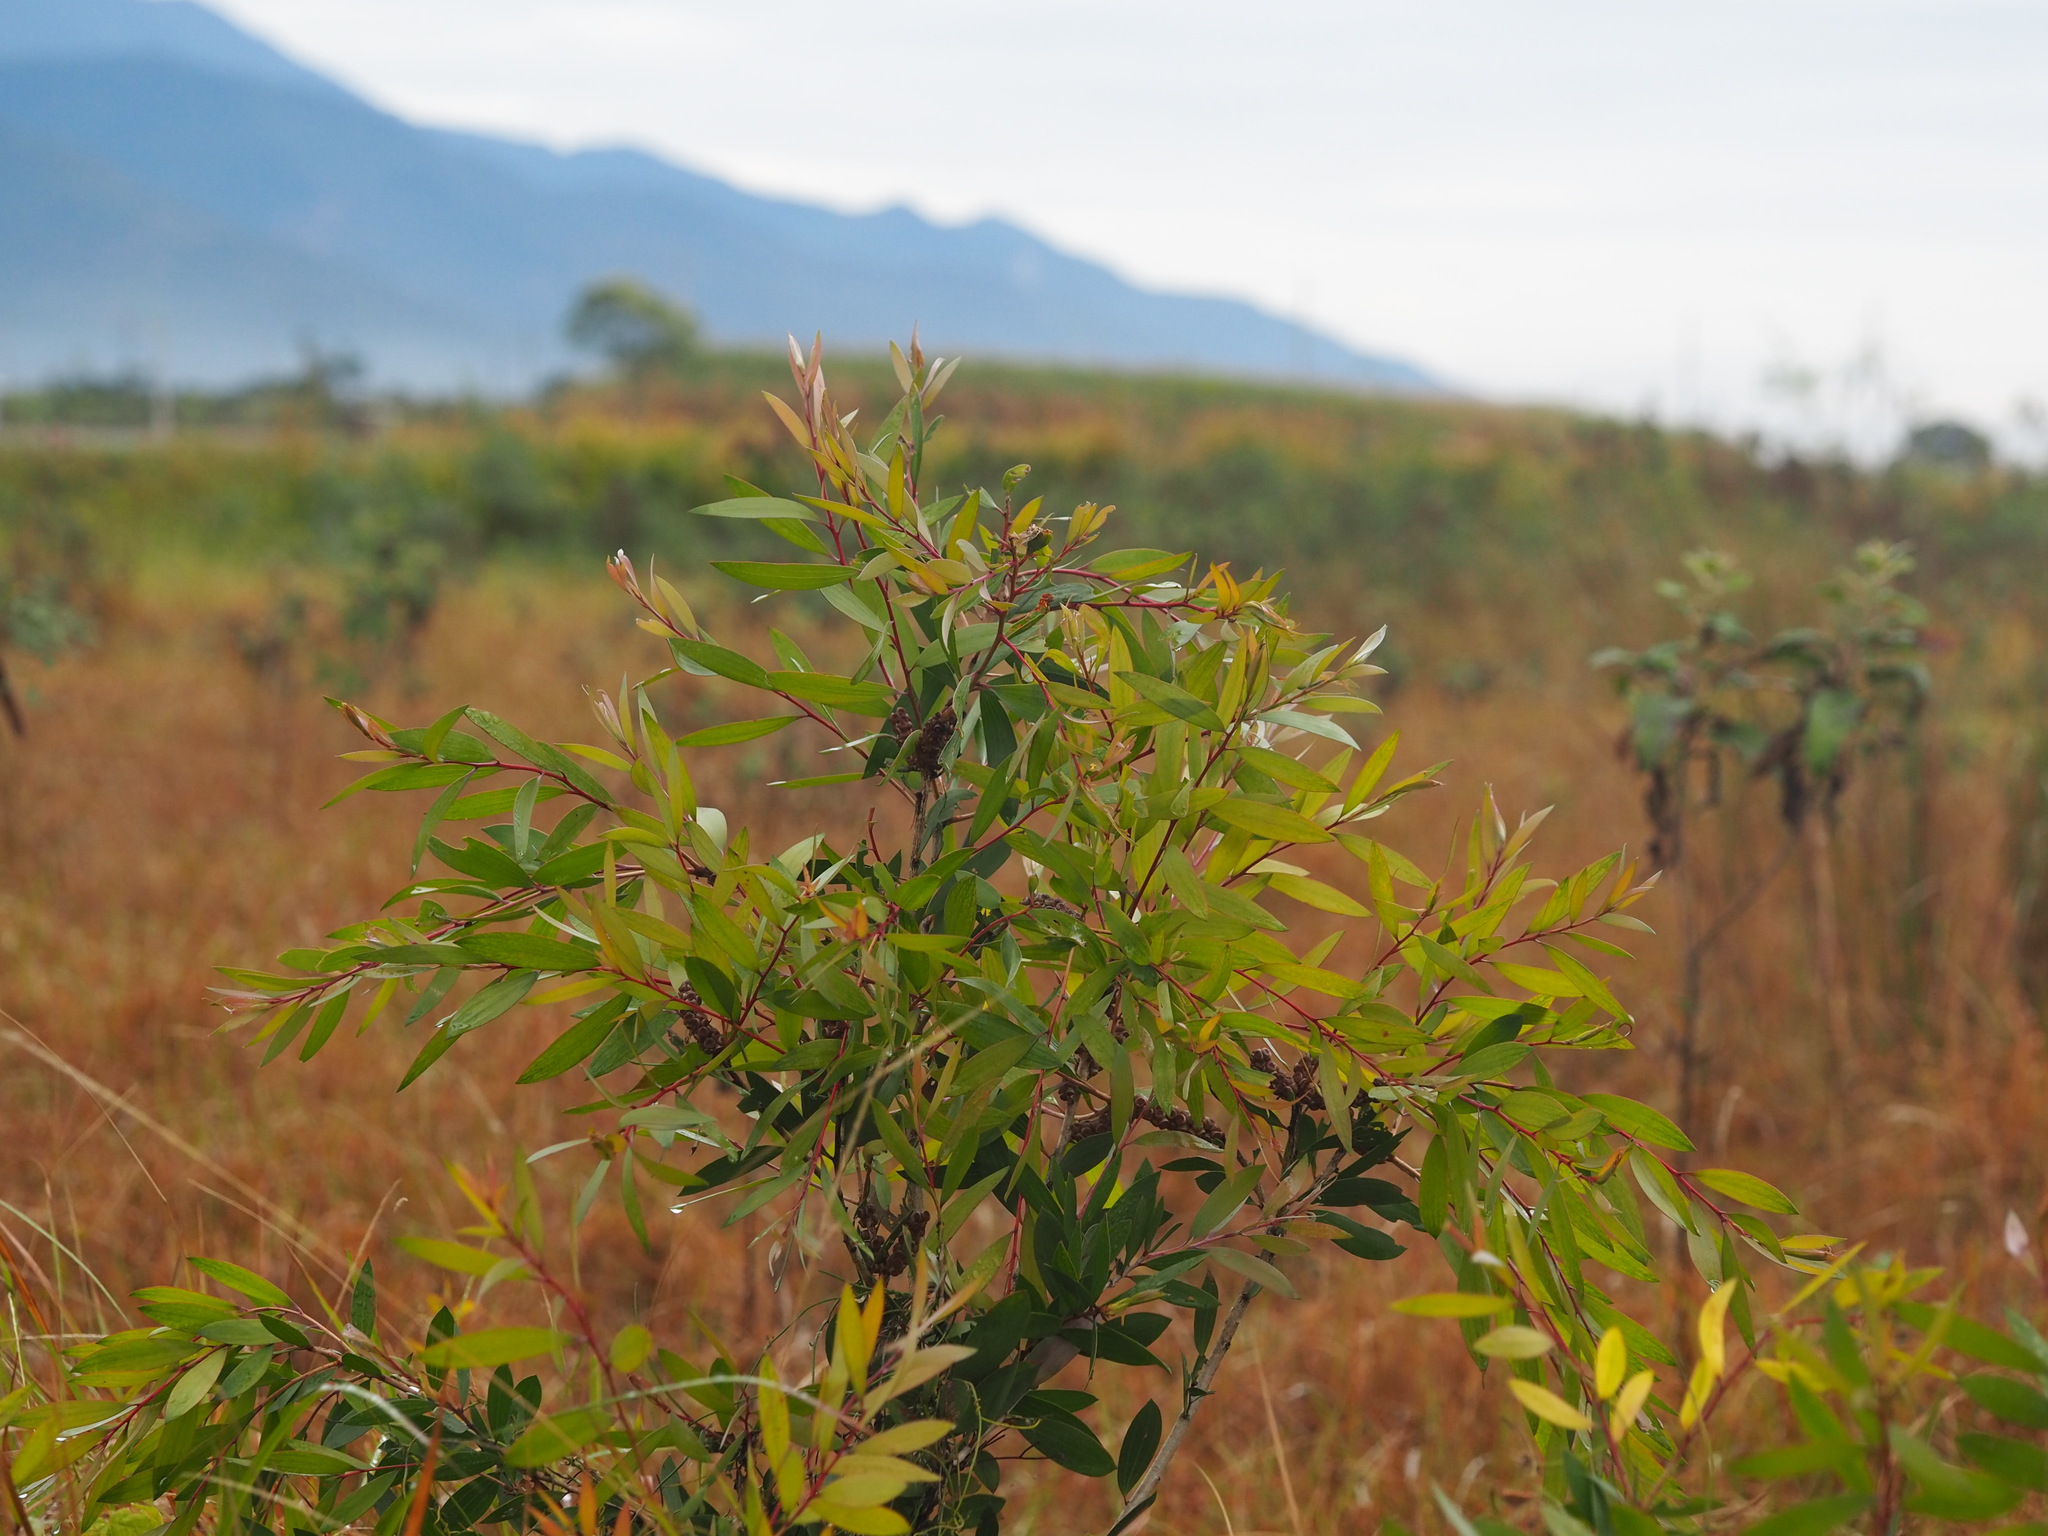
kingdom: Plantae
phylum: Tracheophyta
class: Magnoliopsida
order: Myrtales
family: Myrtaceae
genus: Melaleuca
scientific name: Melaleuca leucadendra
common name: Weeping paperbark
